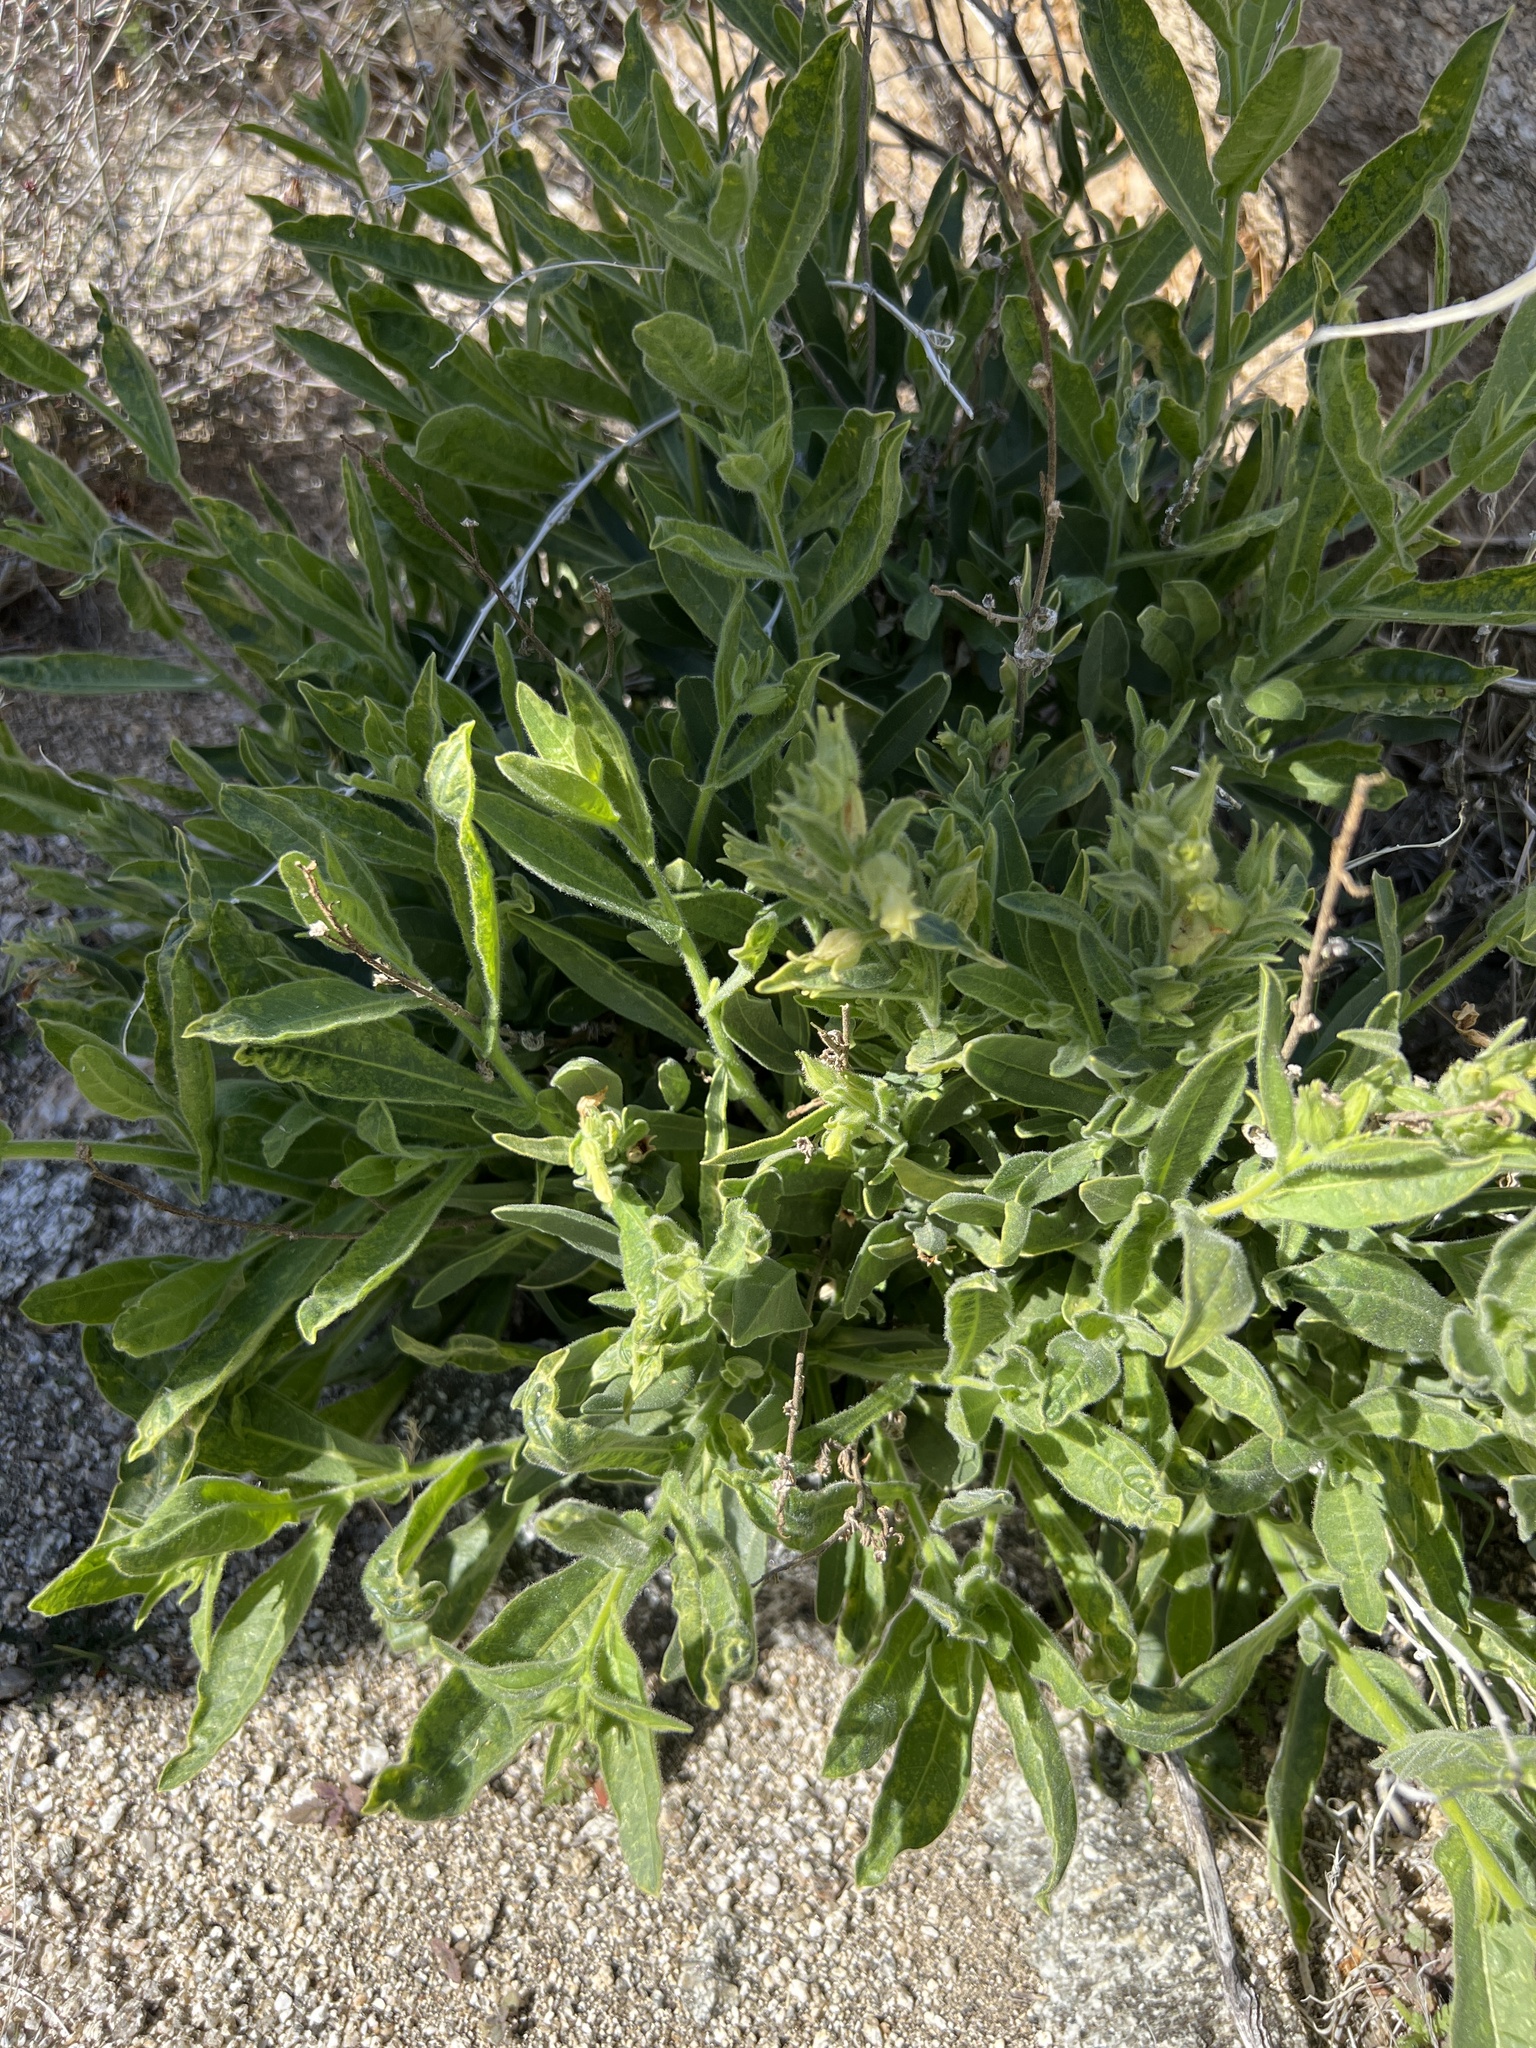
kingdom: Plantae
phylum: Tracheophyta
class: Magnoliopsida
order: Solanales
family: Solanaceae
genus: Nicotiana
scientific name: Nicotiana obtusifolia
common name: Desert tobacco
